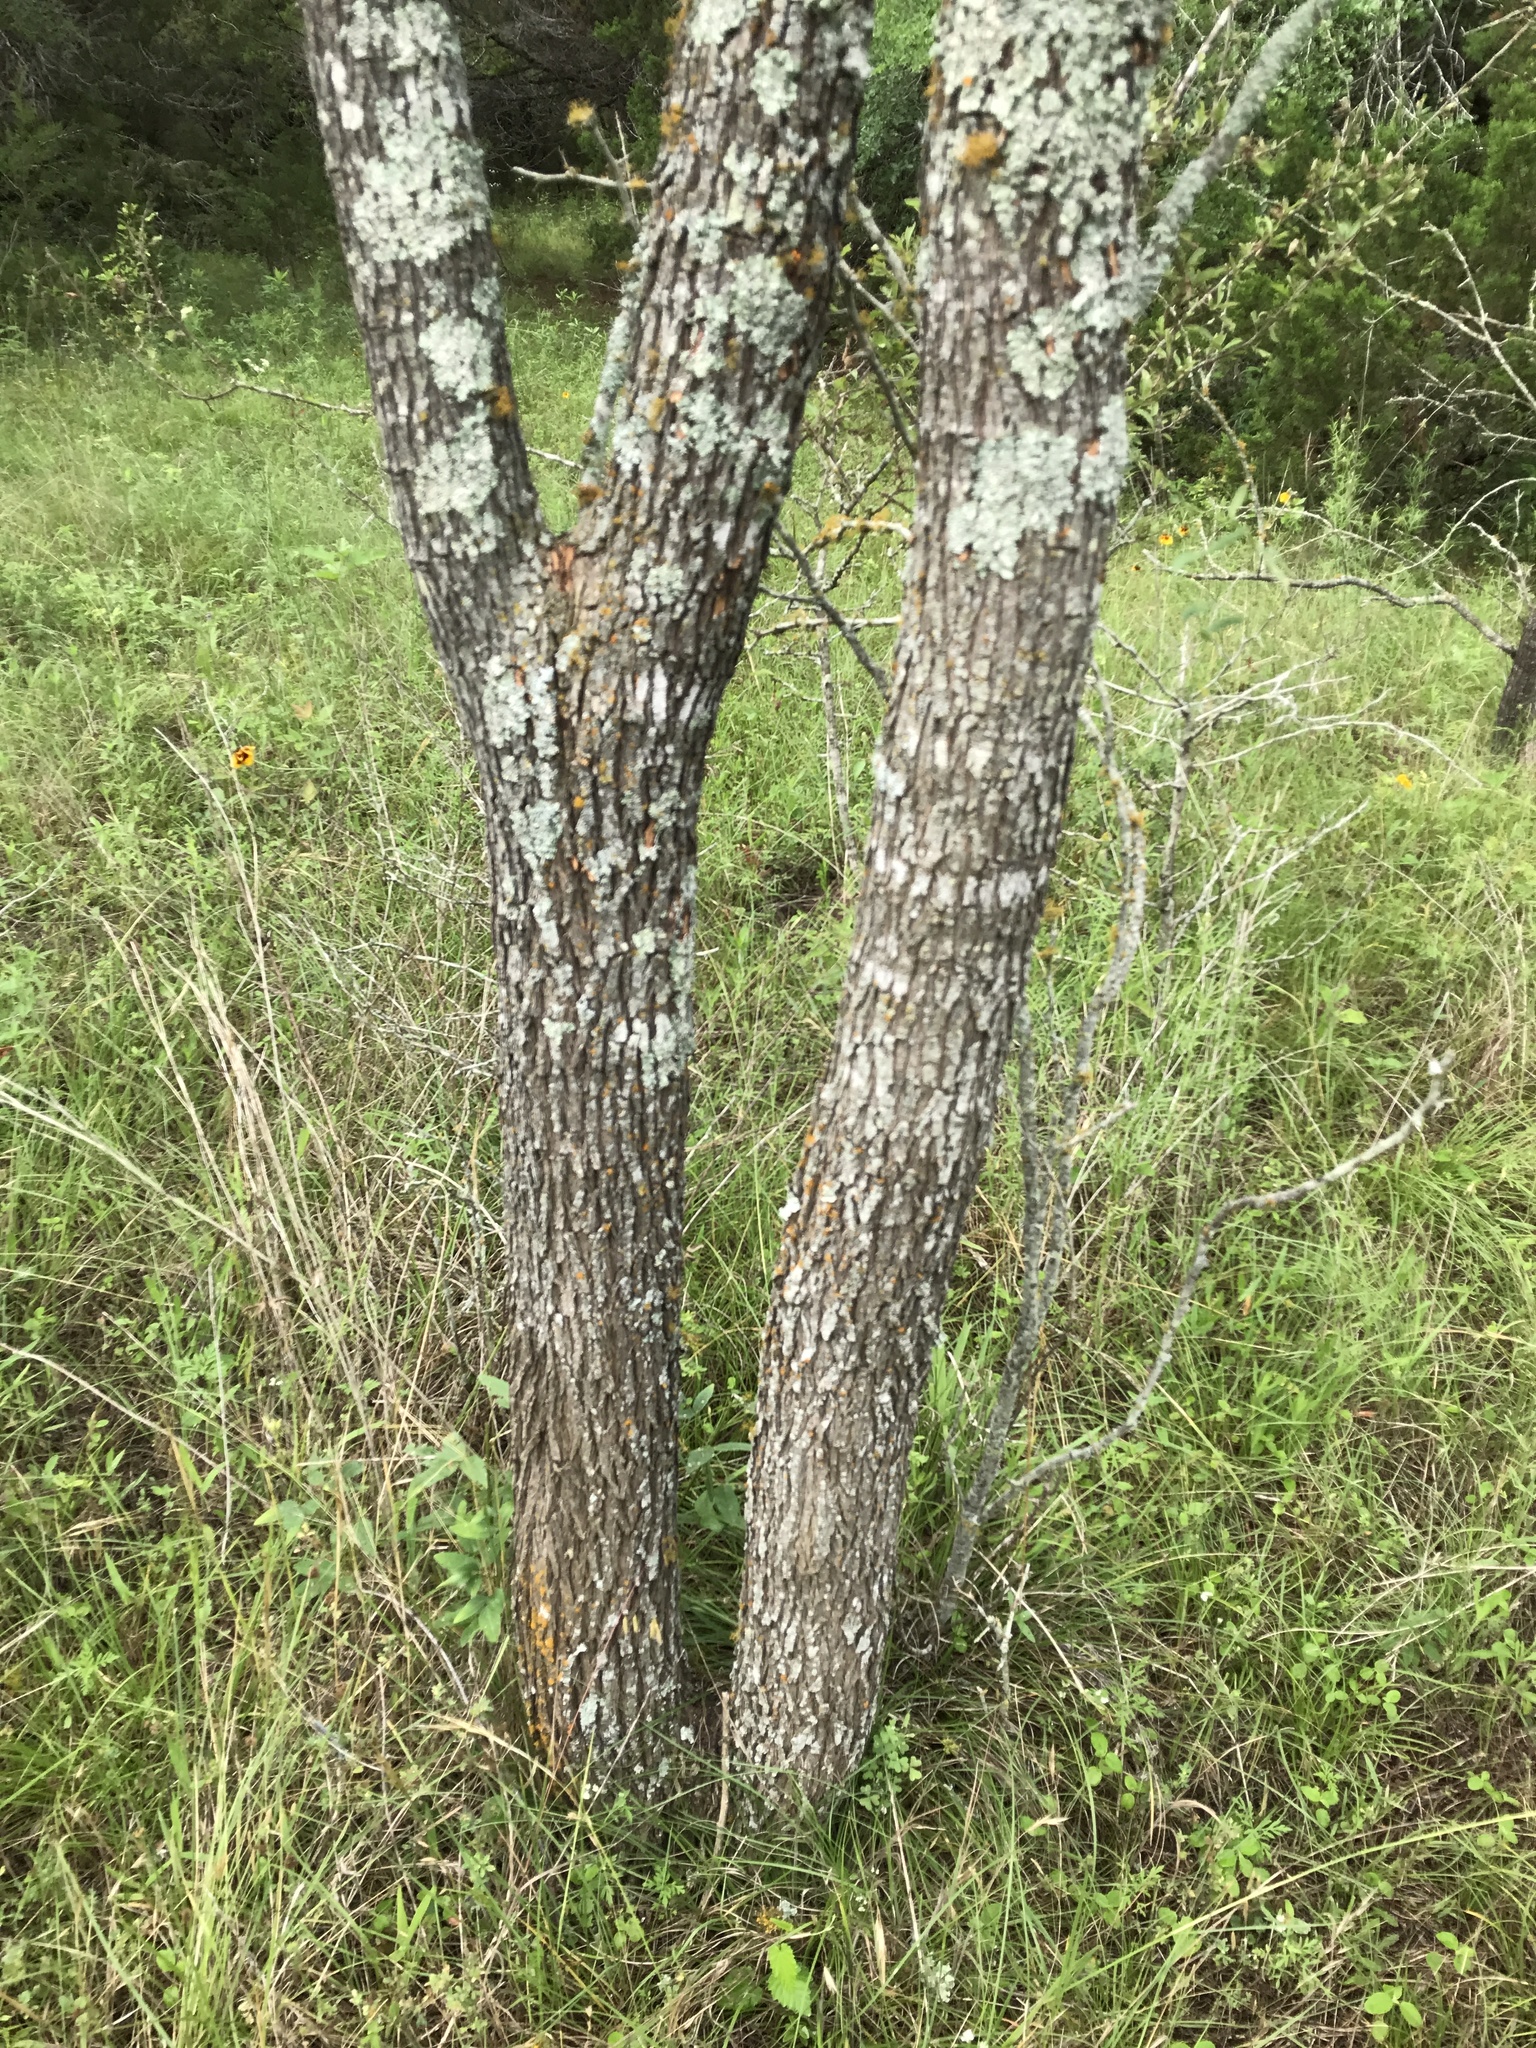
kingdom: Plantae
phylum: Tracheophyta
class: Magnoliopsida
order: Fabales
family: Fabaceae
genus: Prosopis
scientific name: Prosopis glandulosa
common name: Honey mesquite
